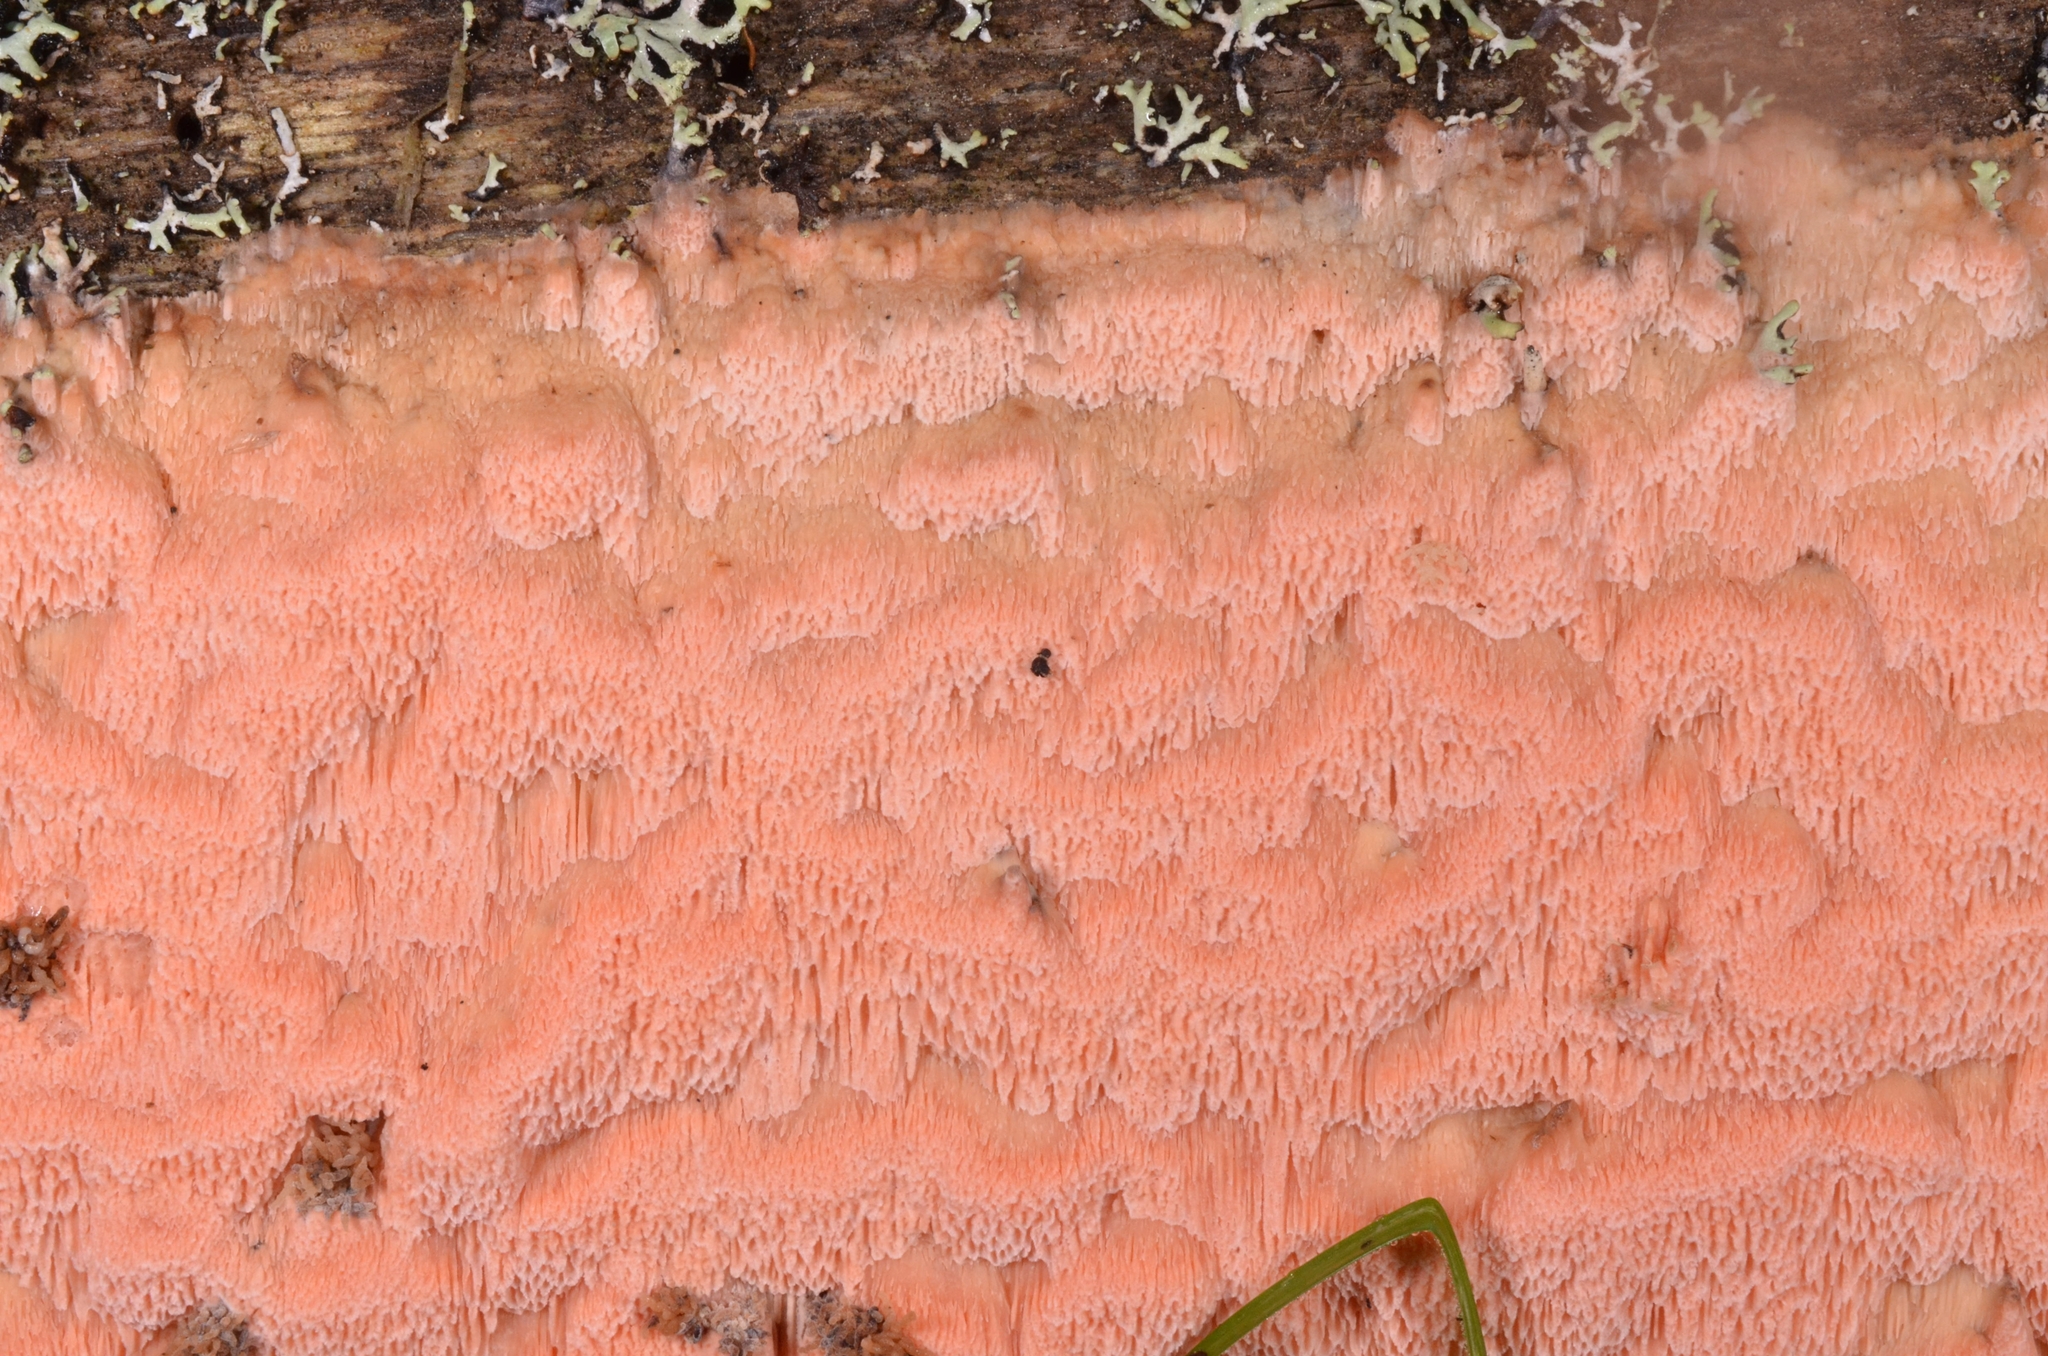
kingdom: Fungi
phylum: Basidiomycota
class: Agaricomycetes
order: Polyporales
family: Polyporaceae
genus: Rhodonia
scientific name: Rhodonia placenta
